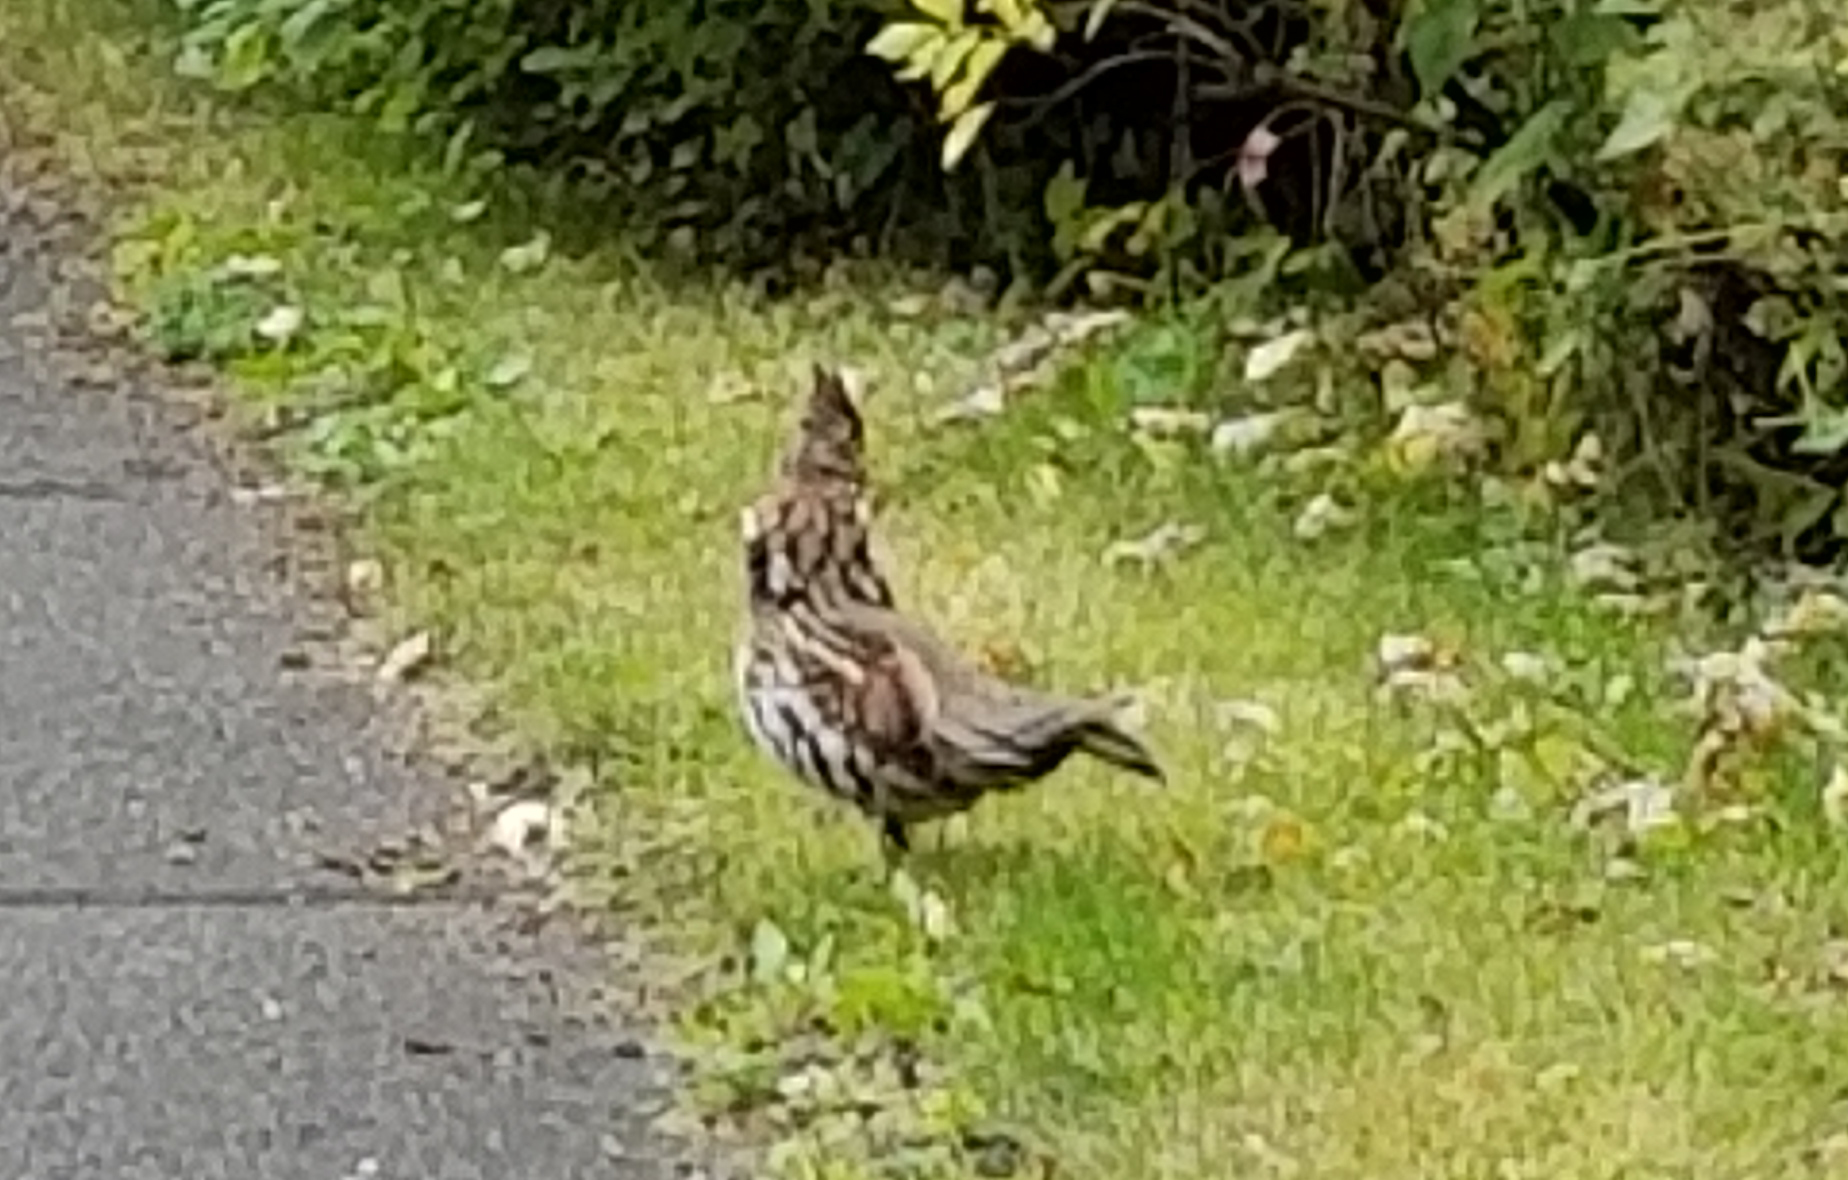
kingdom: Animalia
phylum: Chordata
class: Aves
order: Galliformes
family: Phasianidae
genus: Bonasa
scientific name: Bonasa umbellus
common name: Ruffed grouse
